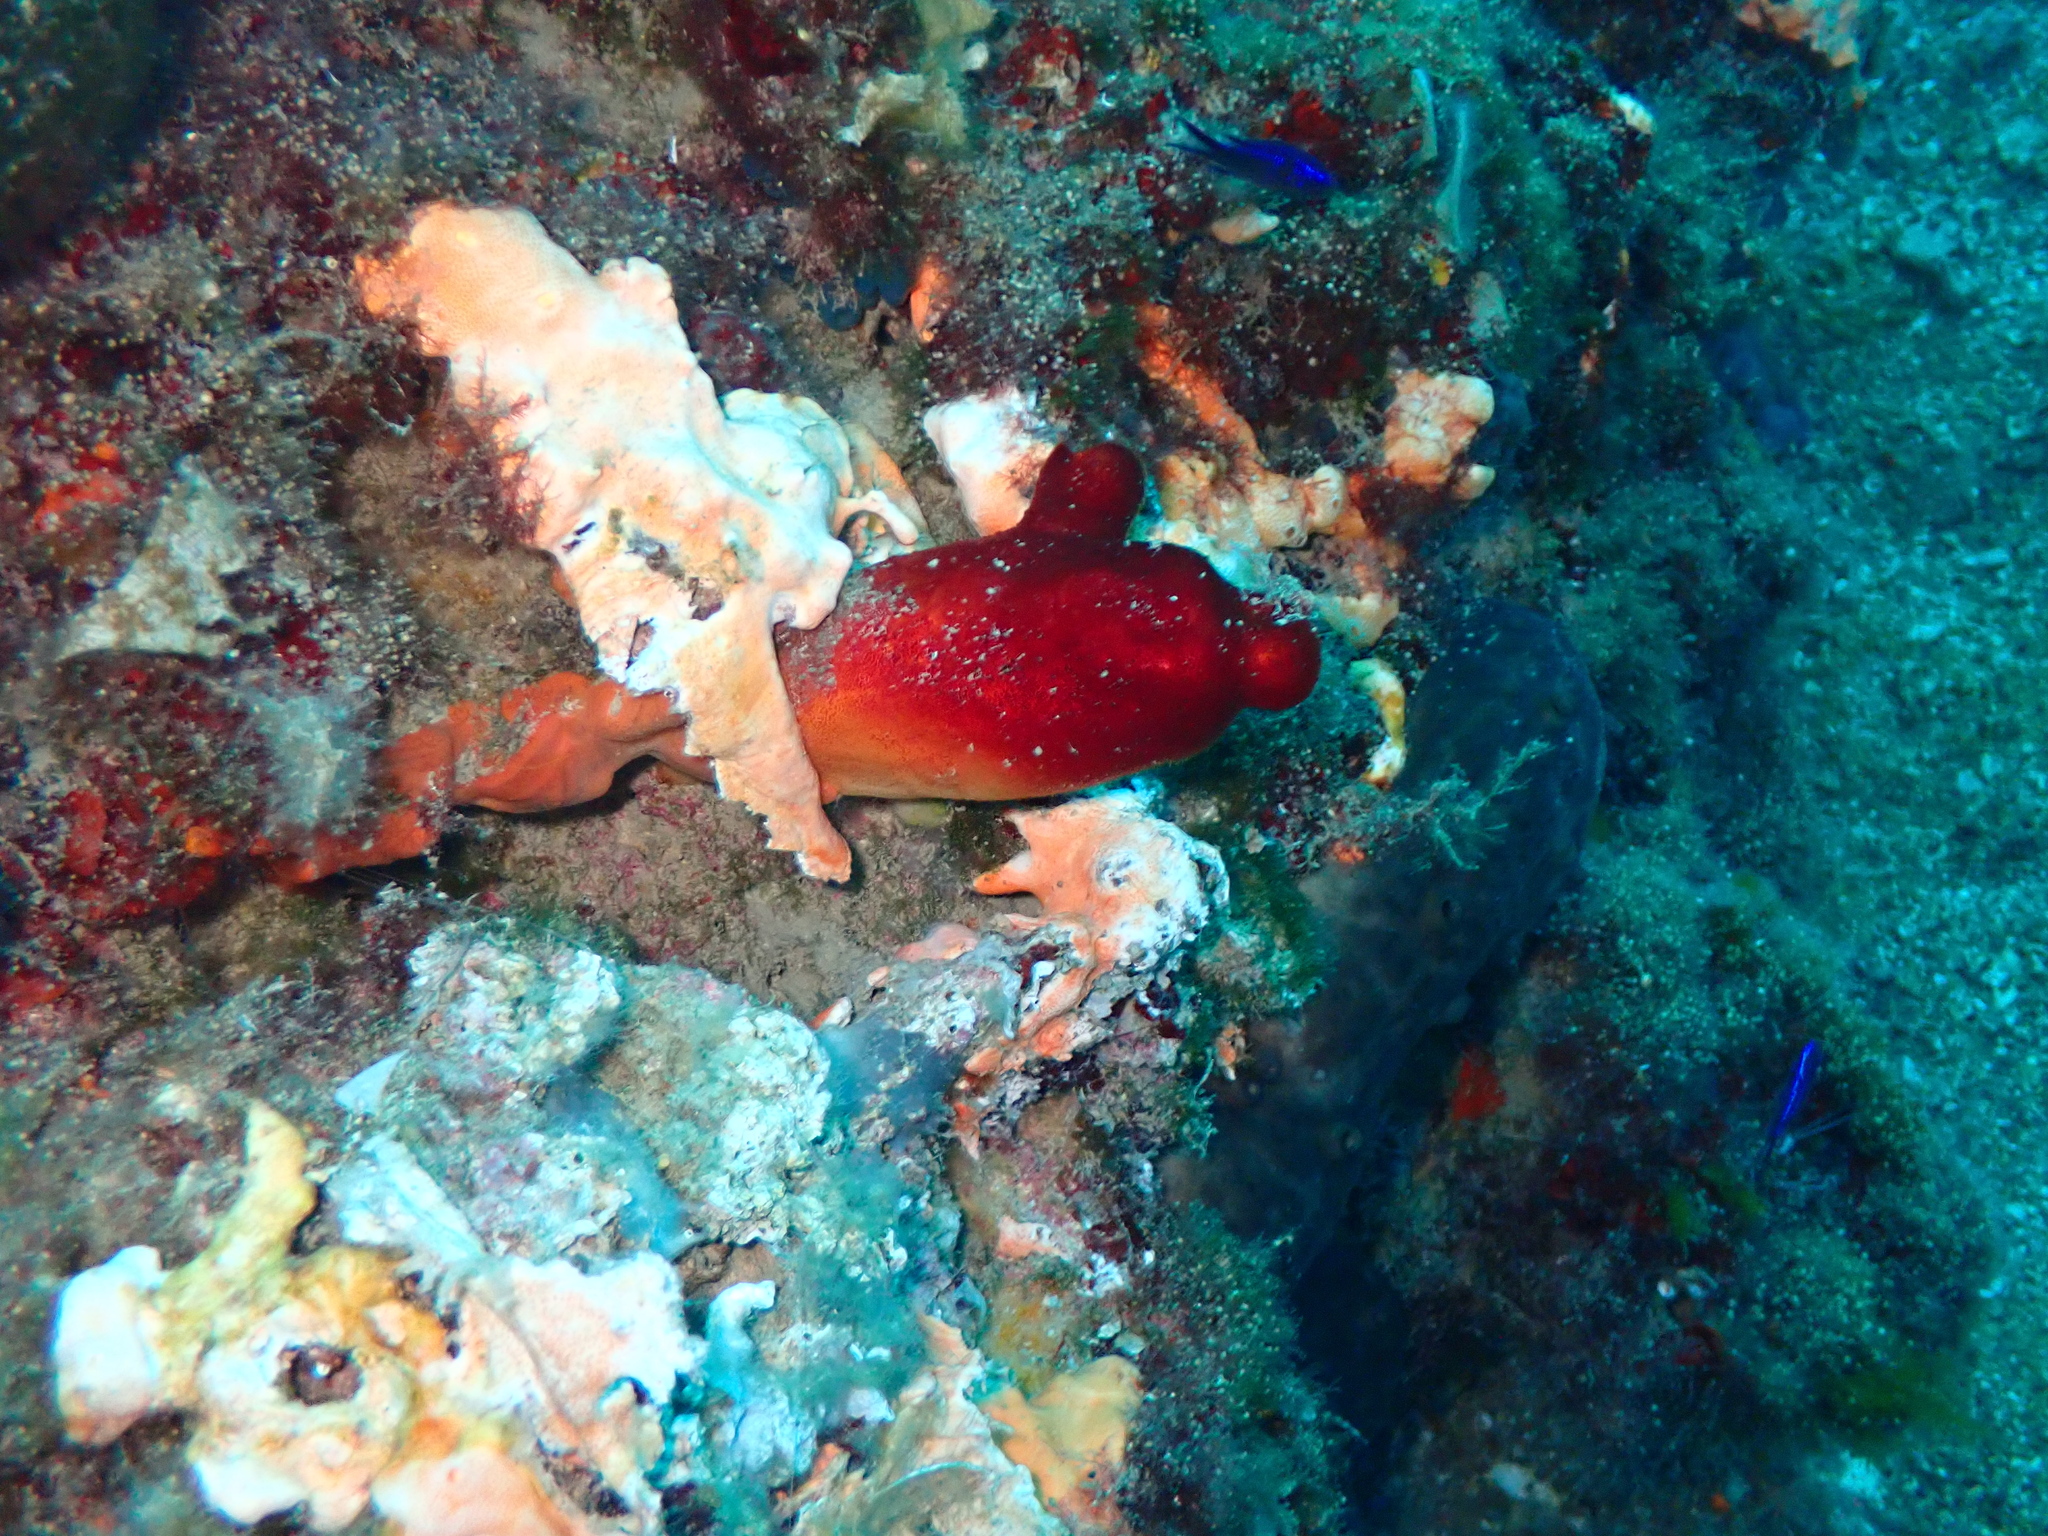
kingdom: Animalia
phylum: Chordata
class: Ascidiacea
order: Stolidobranchia
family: Pyuridae
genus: Halocynthia
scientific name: Halocynthia papillosa
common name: Red sea-squirt
